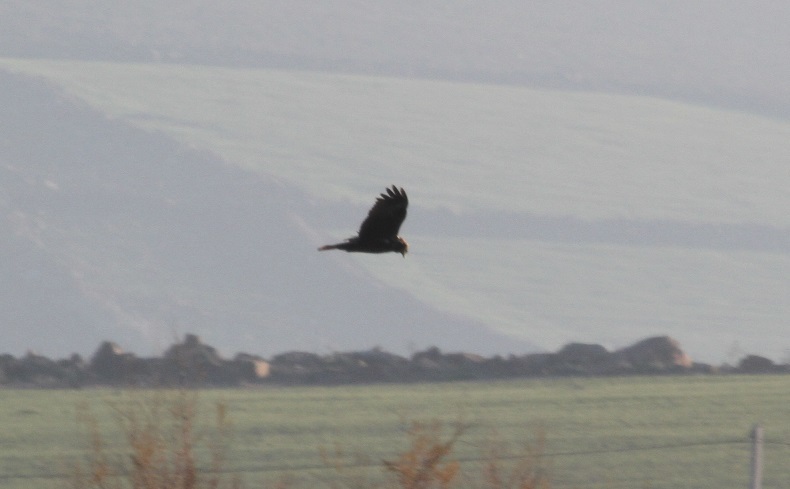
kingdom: Animalia
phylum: Chordata
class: Aves
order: Accipitriformes
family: Accipitridae
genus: Circus
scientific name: Circus aeruginosus
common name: Western marsh harrier
